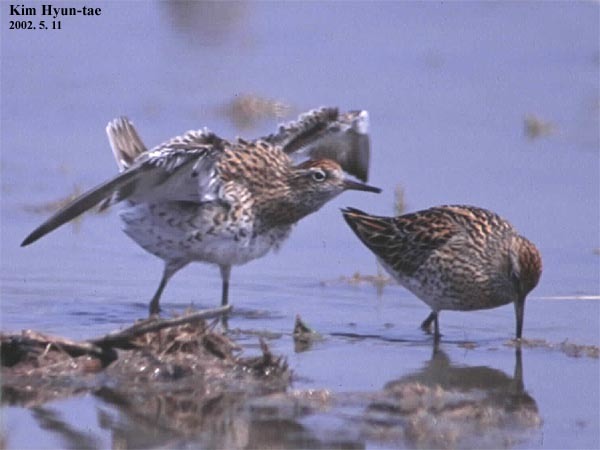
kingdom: Animalia
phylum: Chordata
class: Aves
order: Charadriiformes
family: Scolopacidae
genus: Calidris
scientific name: Calidris acuminata
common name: Sharp-tailed sandpiper
